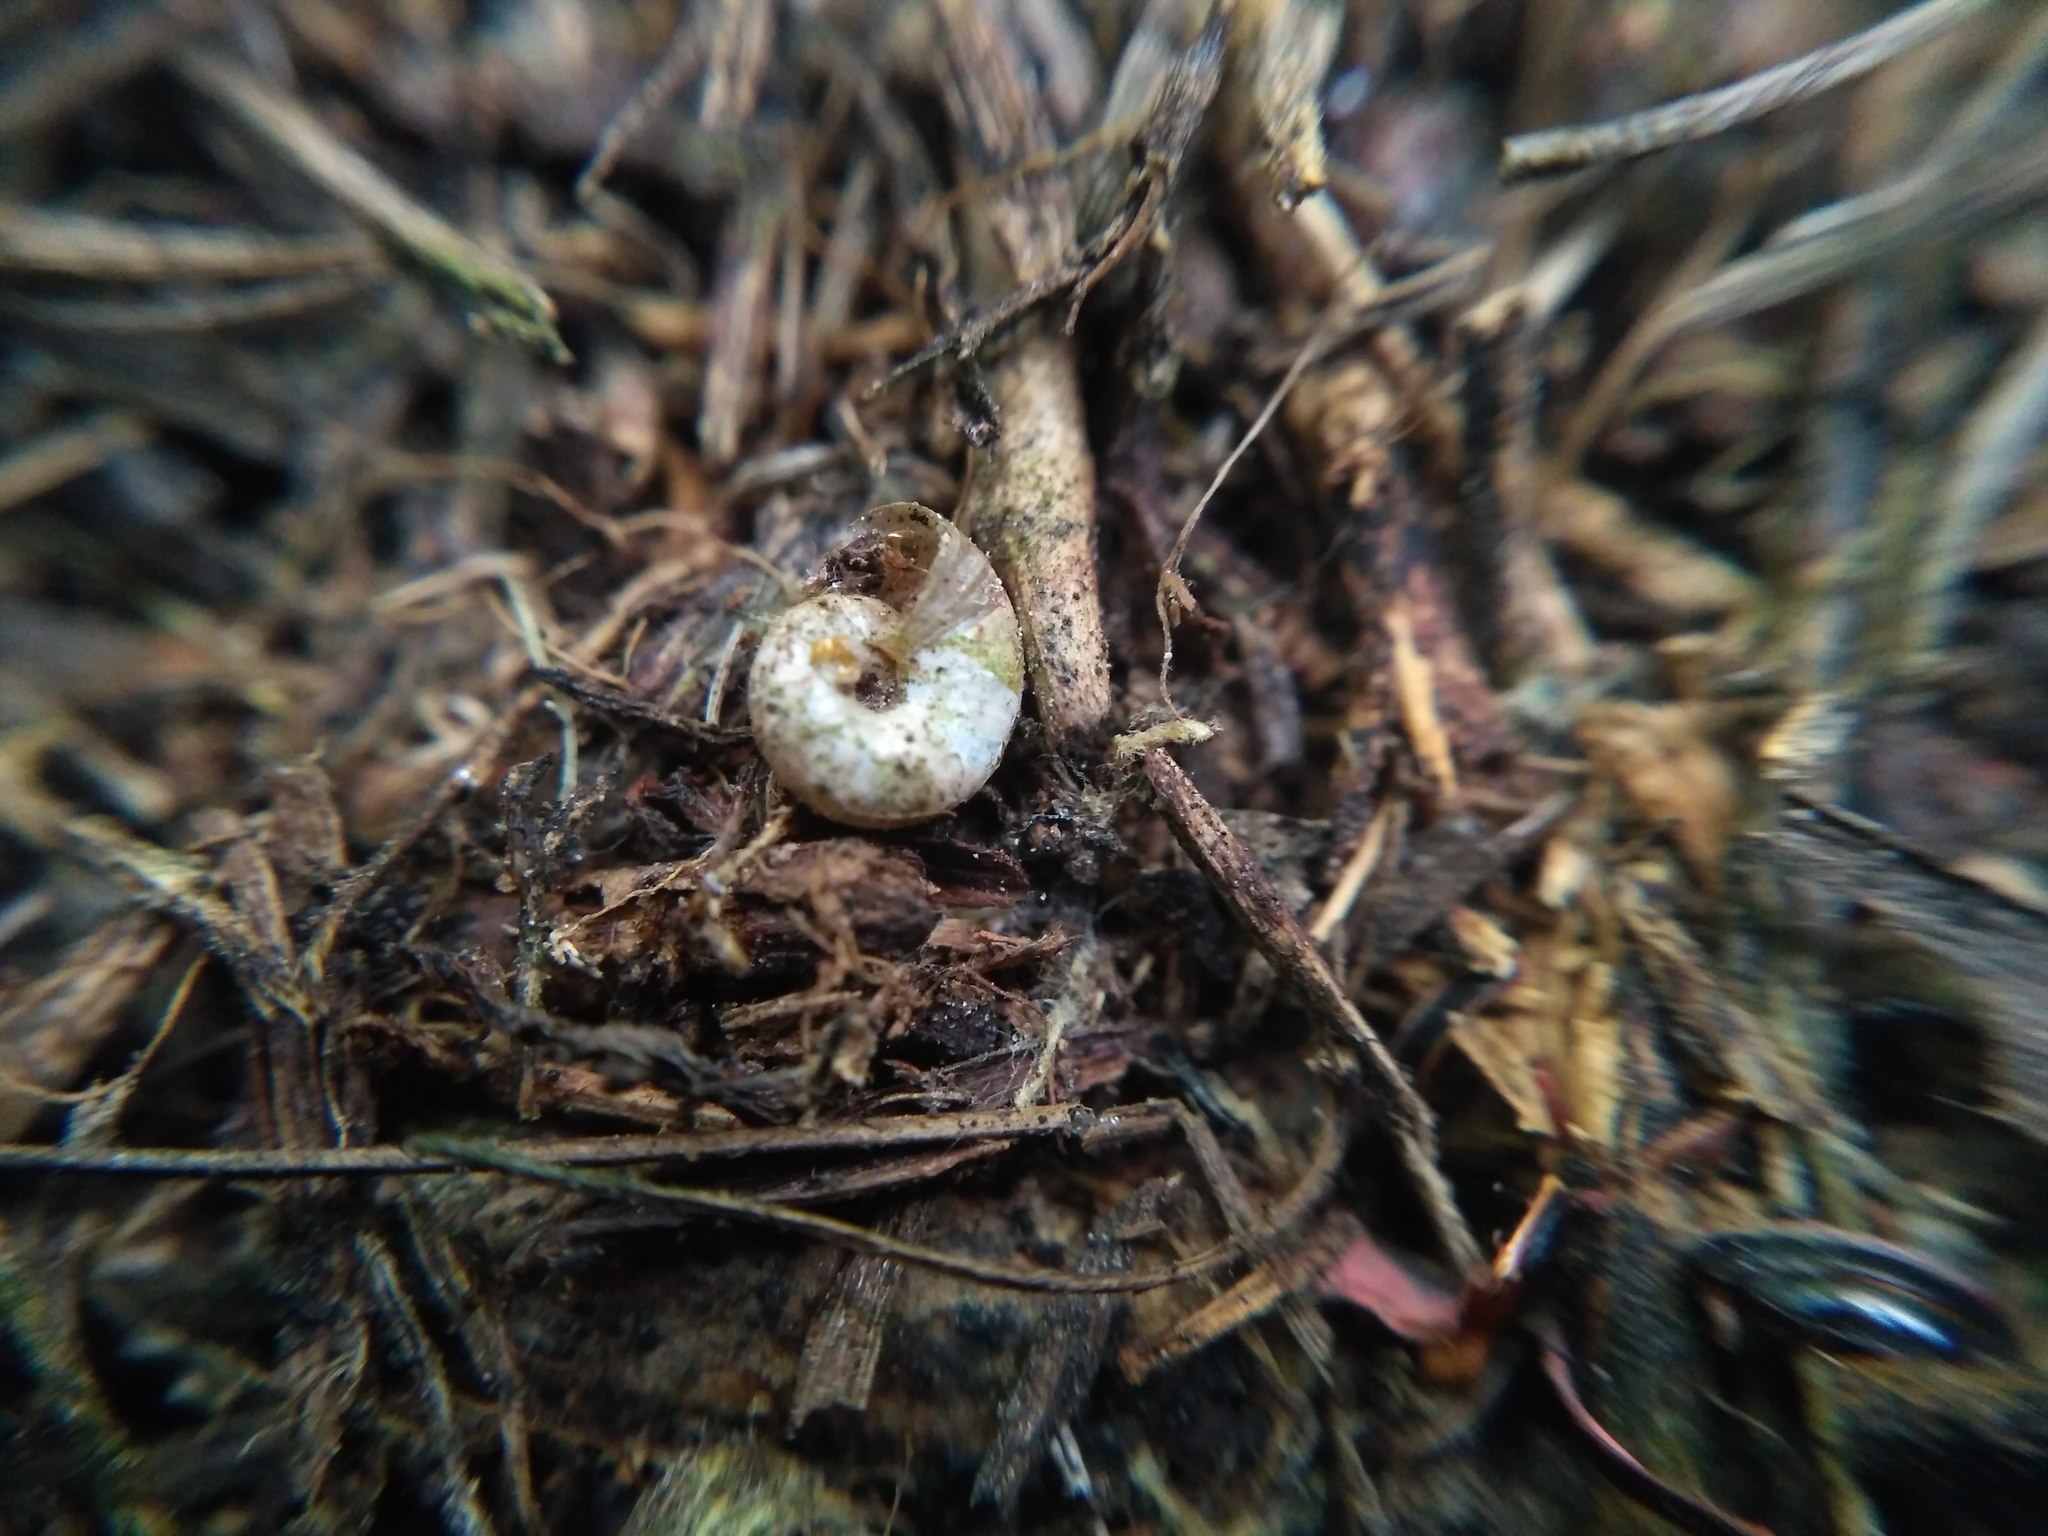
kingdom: Animalia
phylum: Mollusca
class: Gastropoda
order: Stylommatophora
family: Gastrodontidae
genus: Perpolita
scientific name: Perpolita hammonis
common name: Rayed glass snail
